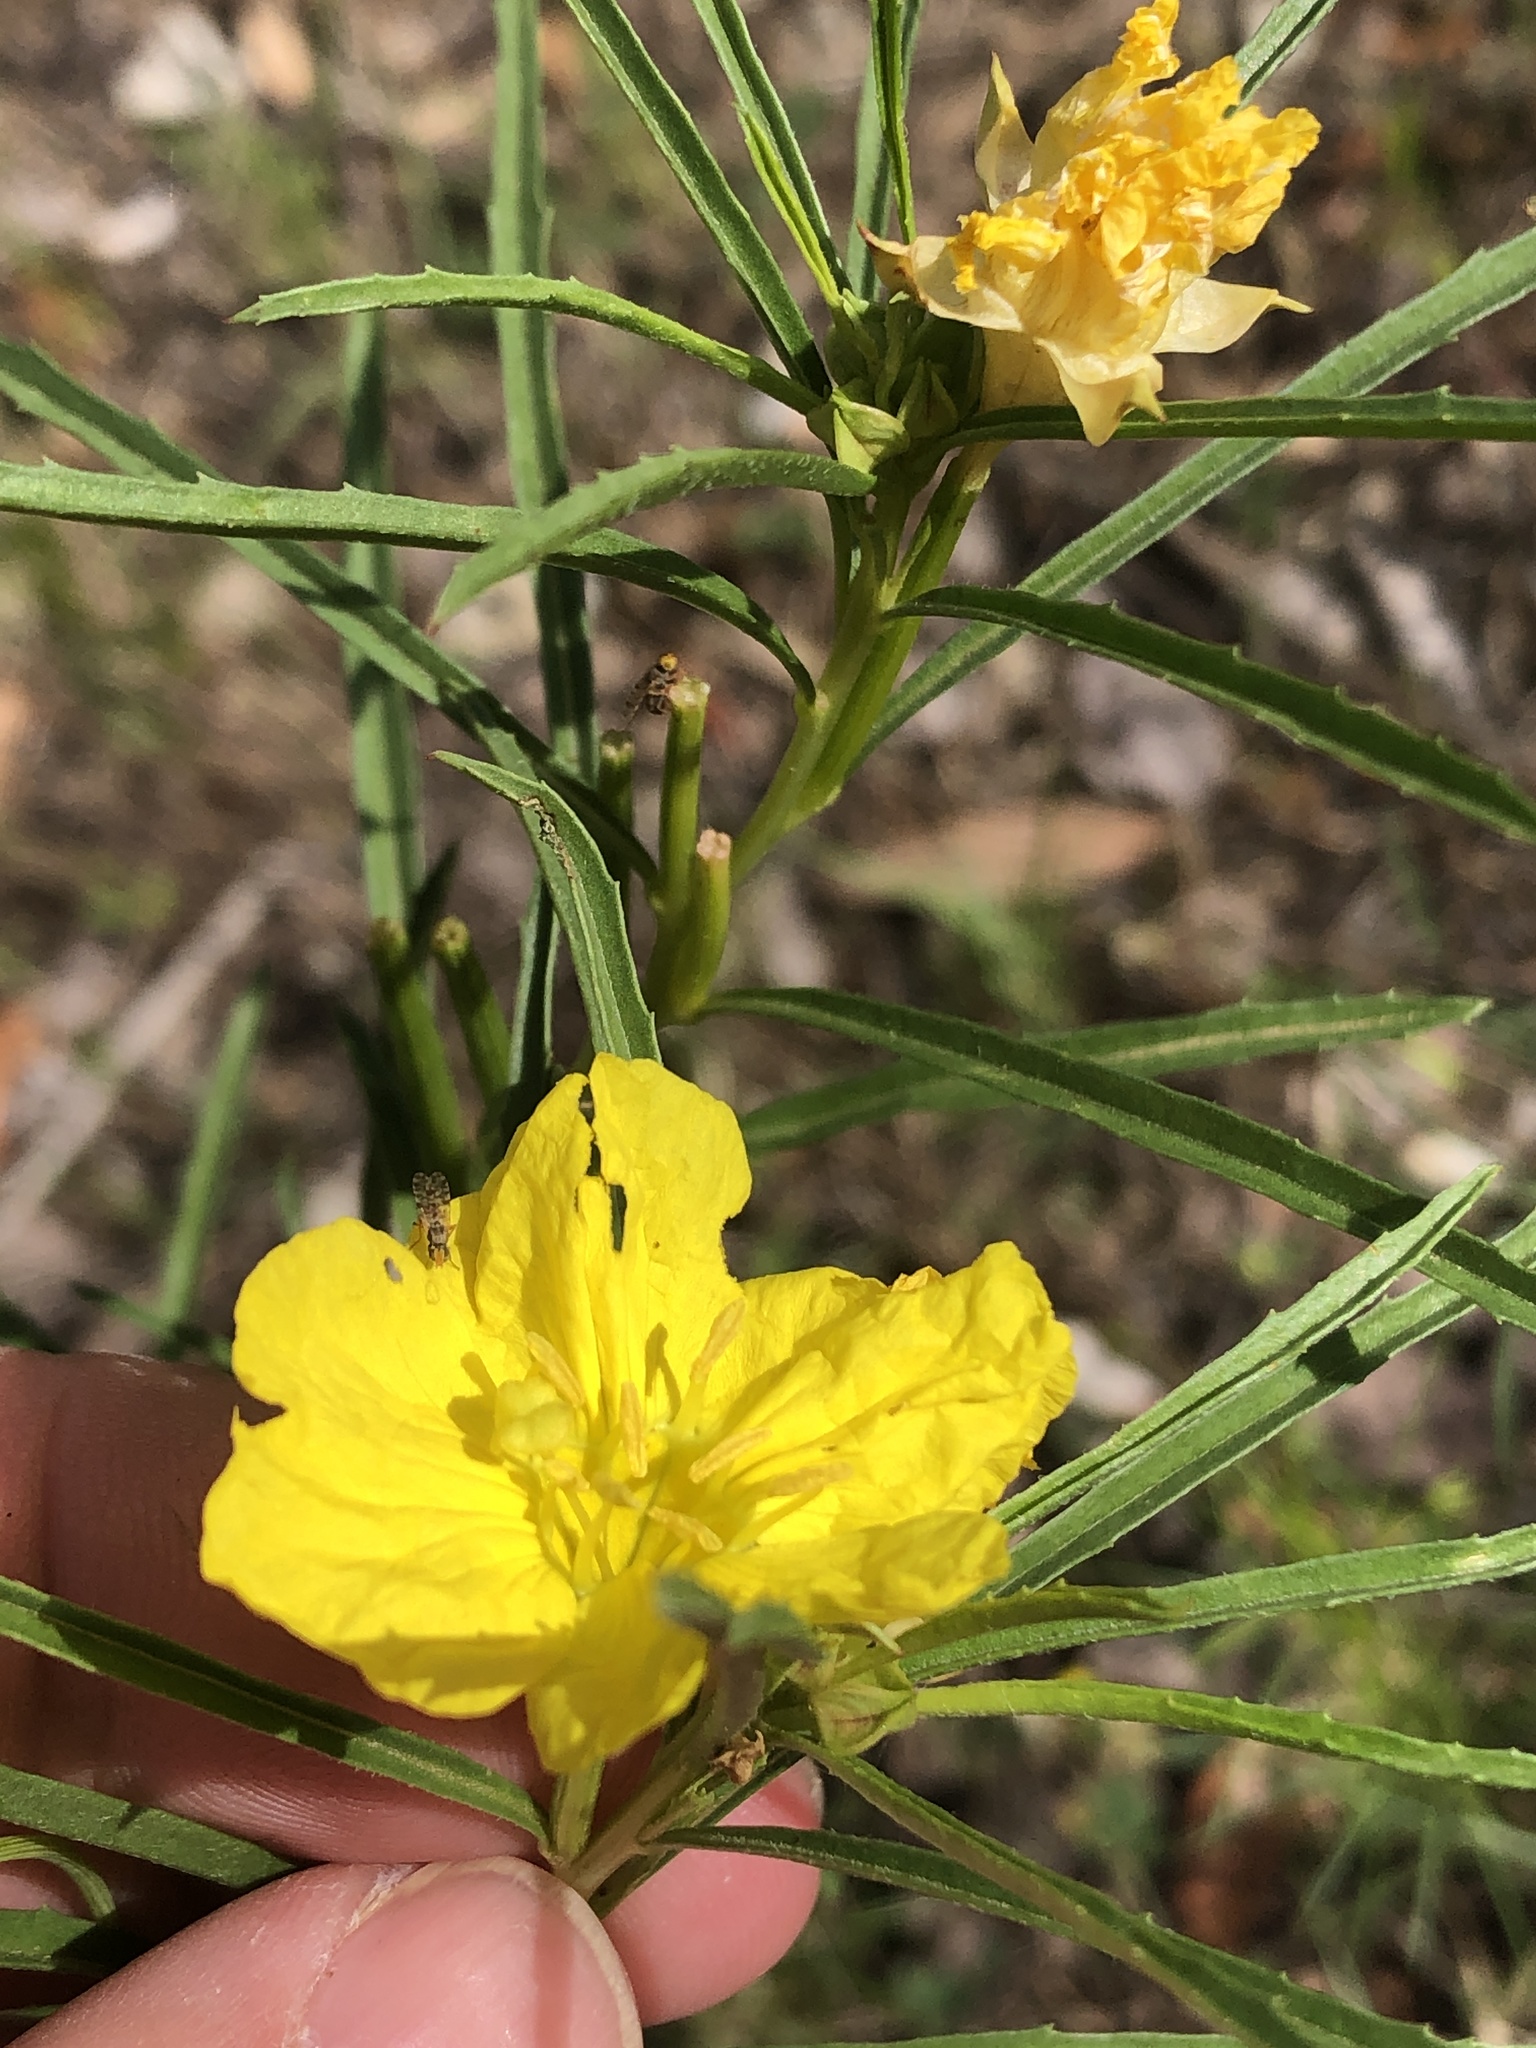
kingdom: Plantae
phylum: Tracheophyta
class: Magnoliopsida
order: Myrtales
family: Onagraceae
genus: Oenothera
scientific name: Oenothera
